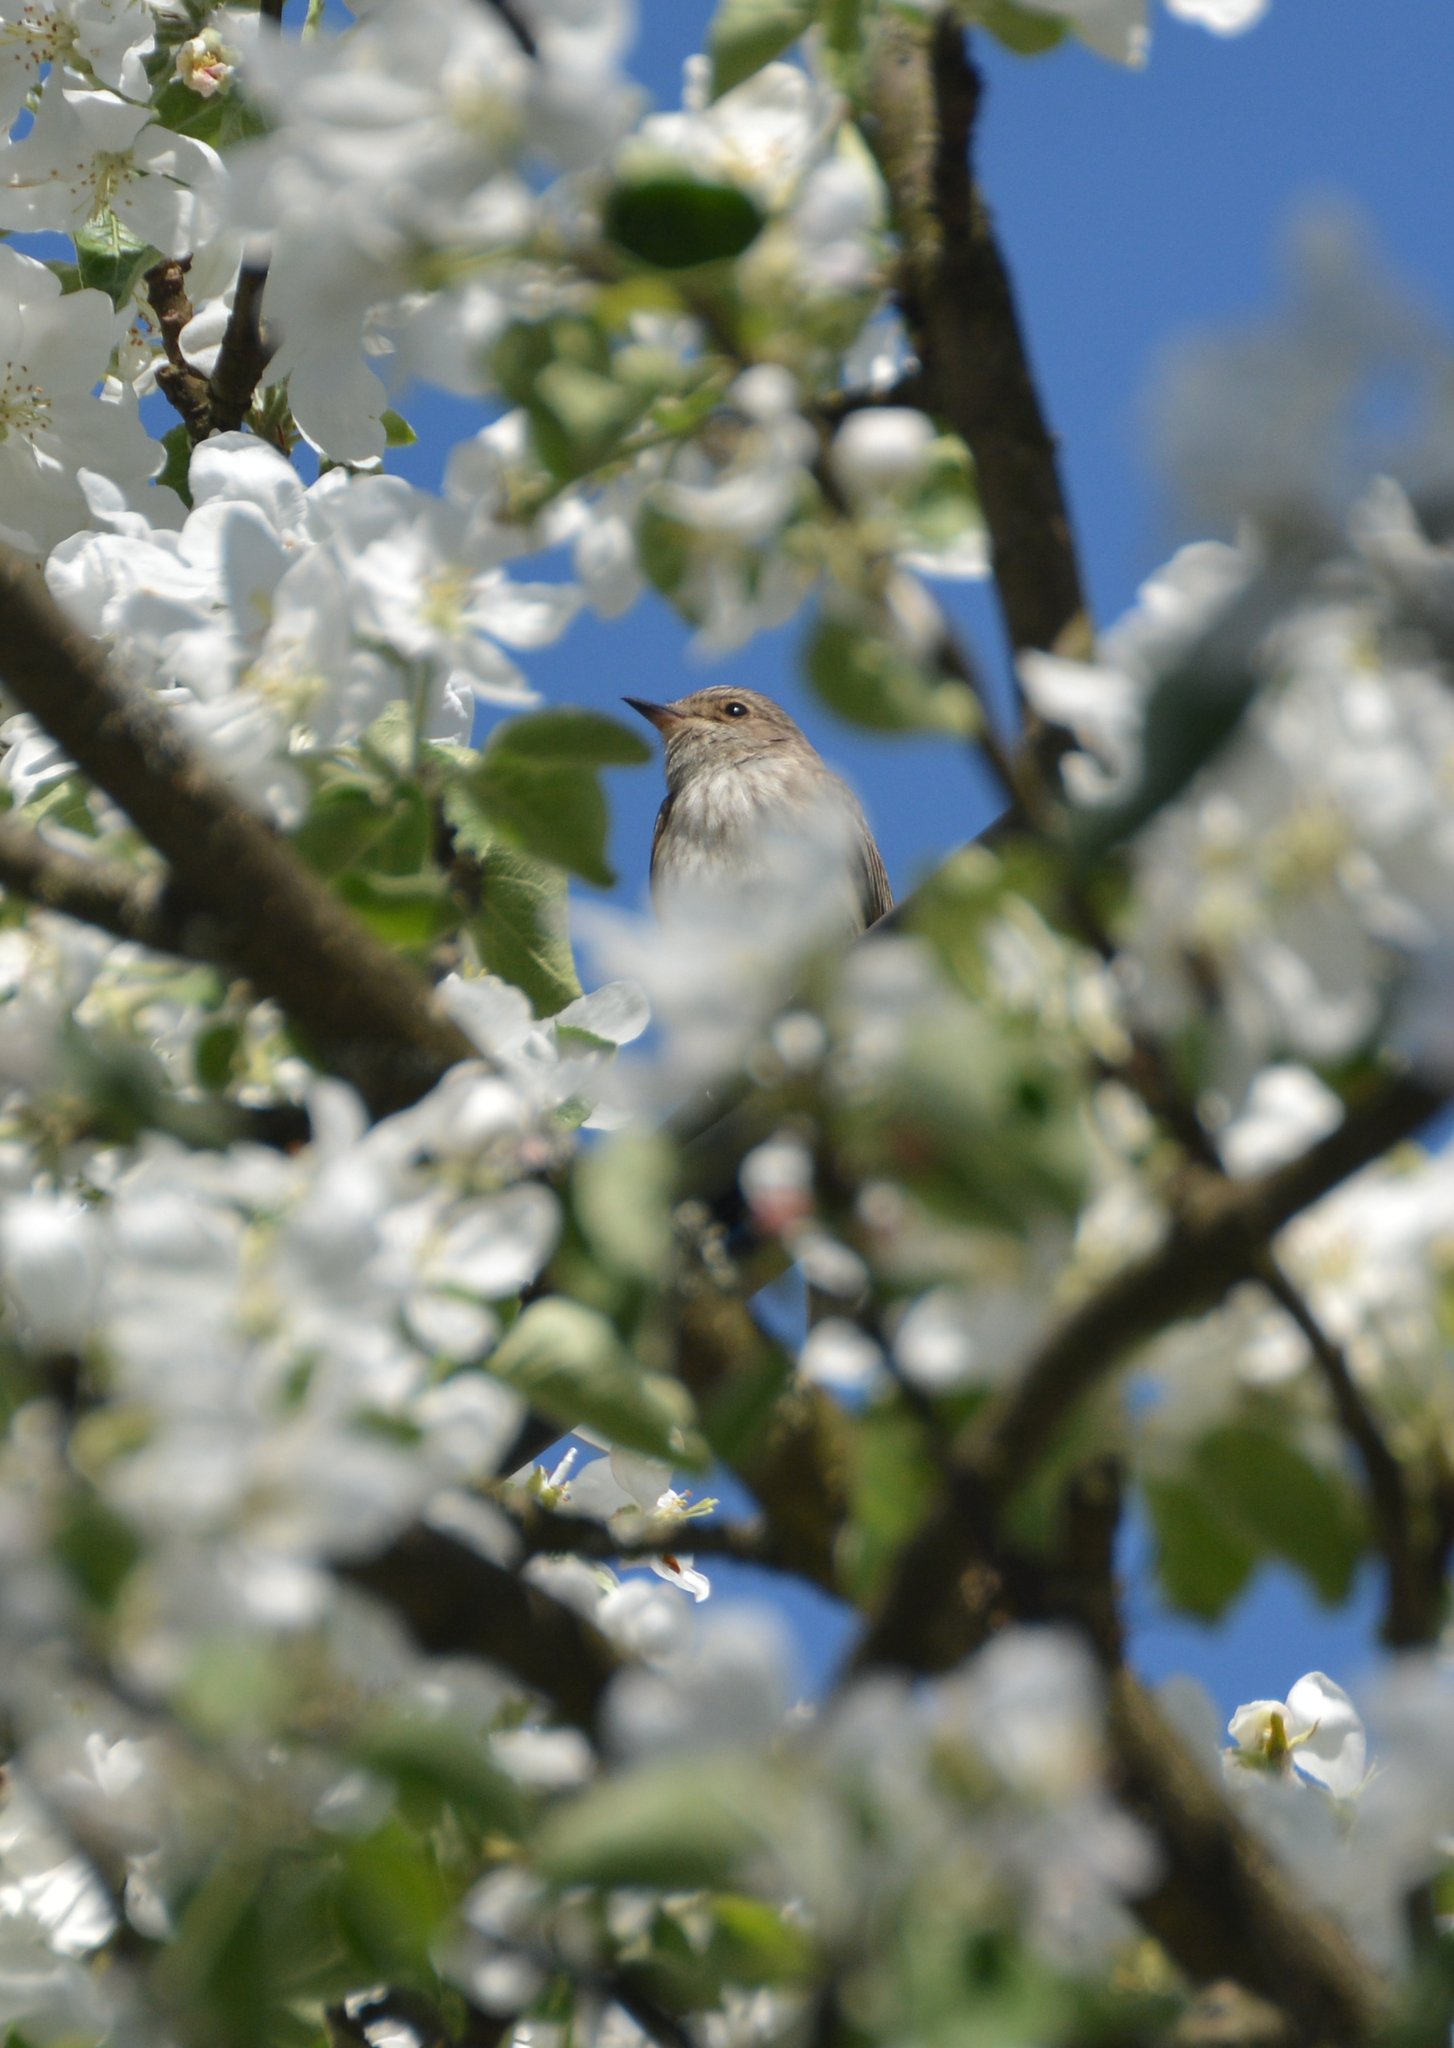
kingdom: Animalia
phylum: Chordata
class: Aves
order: Passeriformes
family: Muscicapidae
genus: Muscicapa
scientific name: Muscicapa striata
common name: Spotted flycatcher
